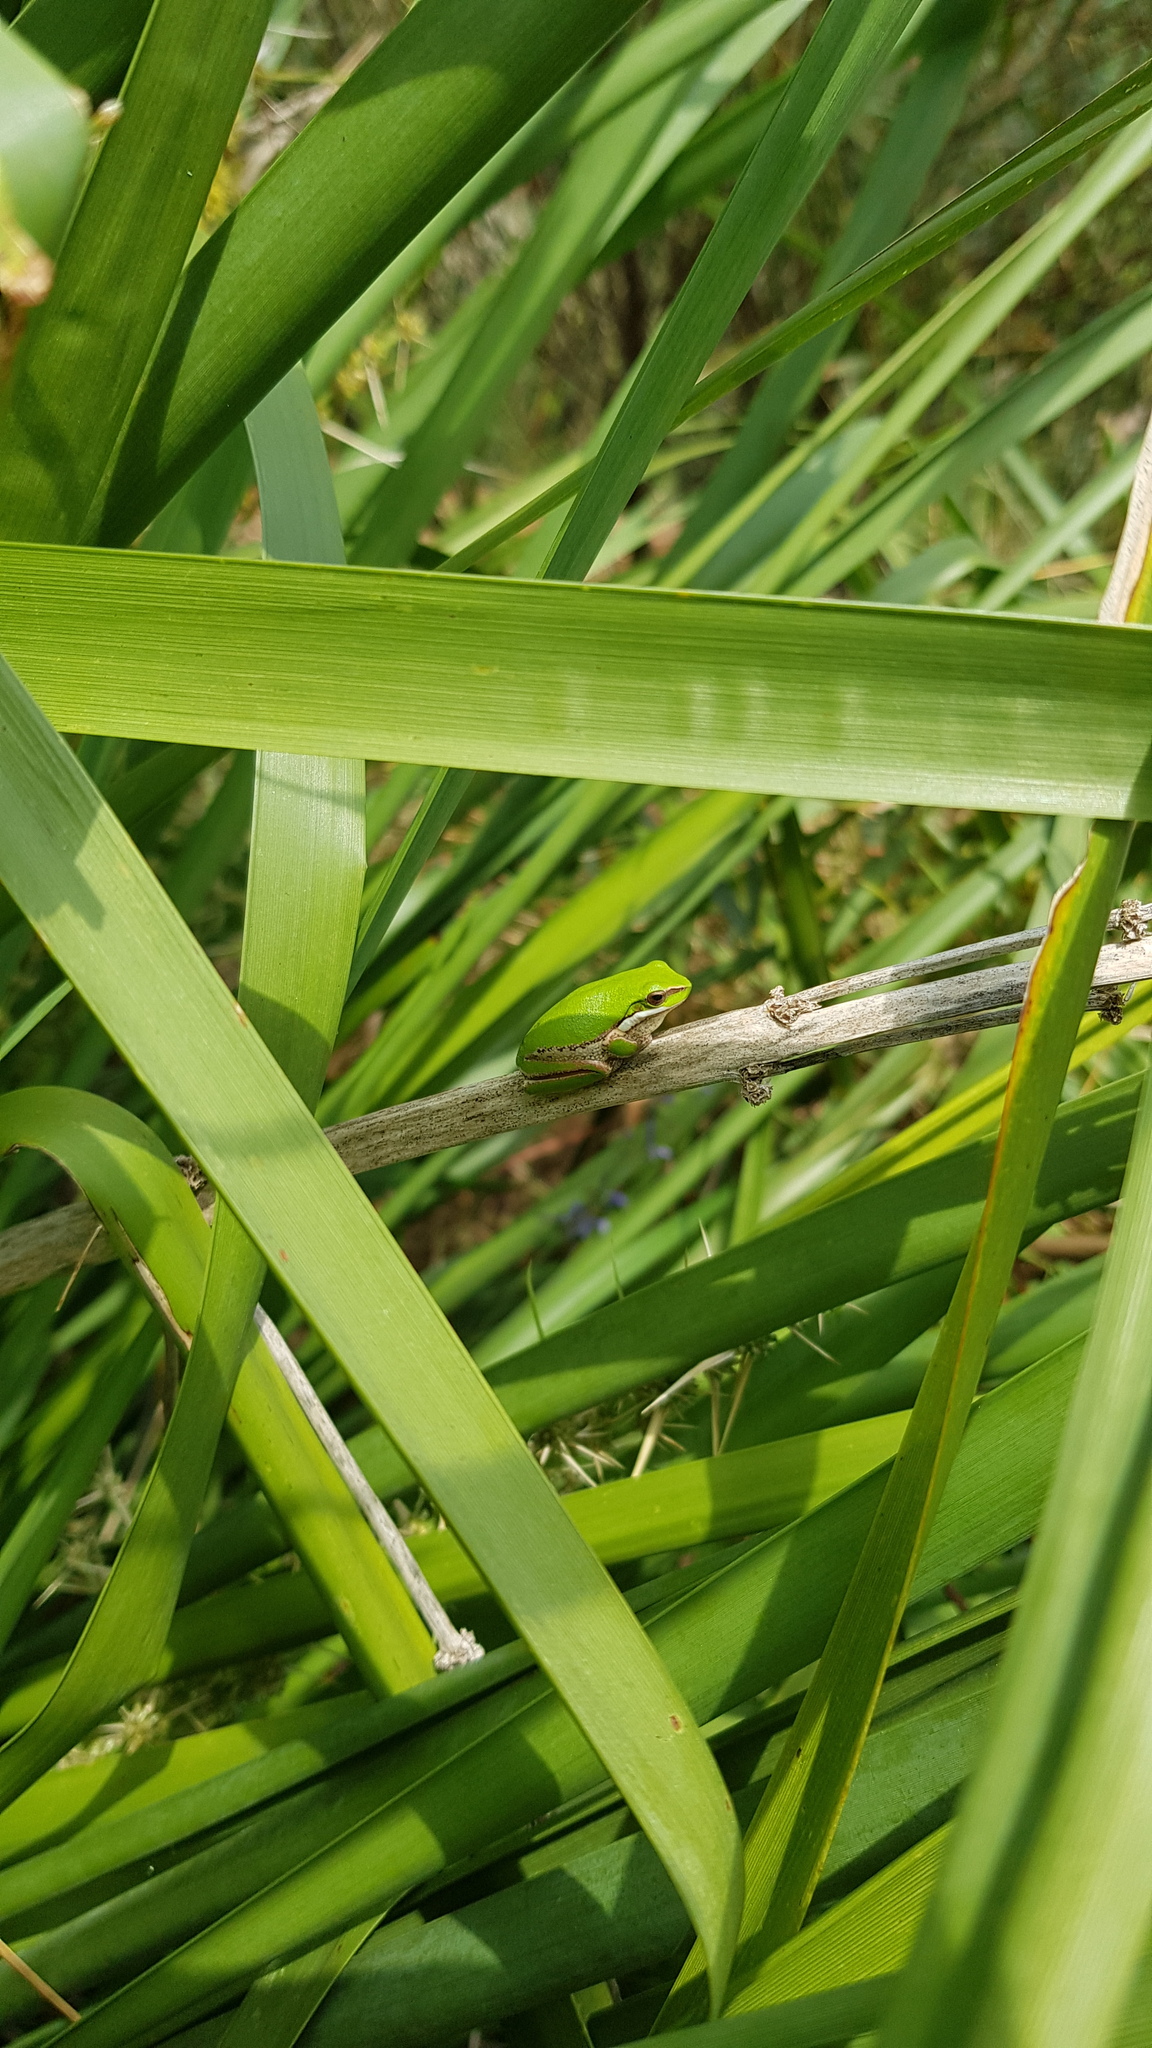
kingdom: Animalia
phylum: Chordata
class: Amphibia
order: Anura
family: Pelodryadidae
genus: Litoria
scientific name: Litoria fallax
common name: Eastern dwarf treefrog
